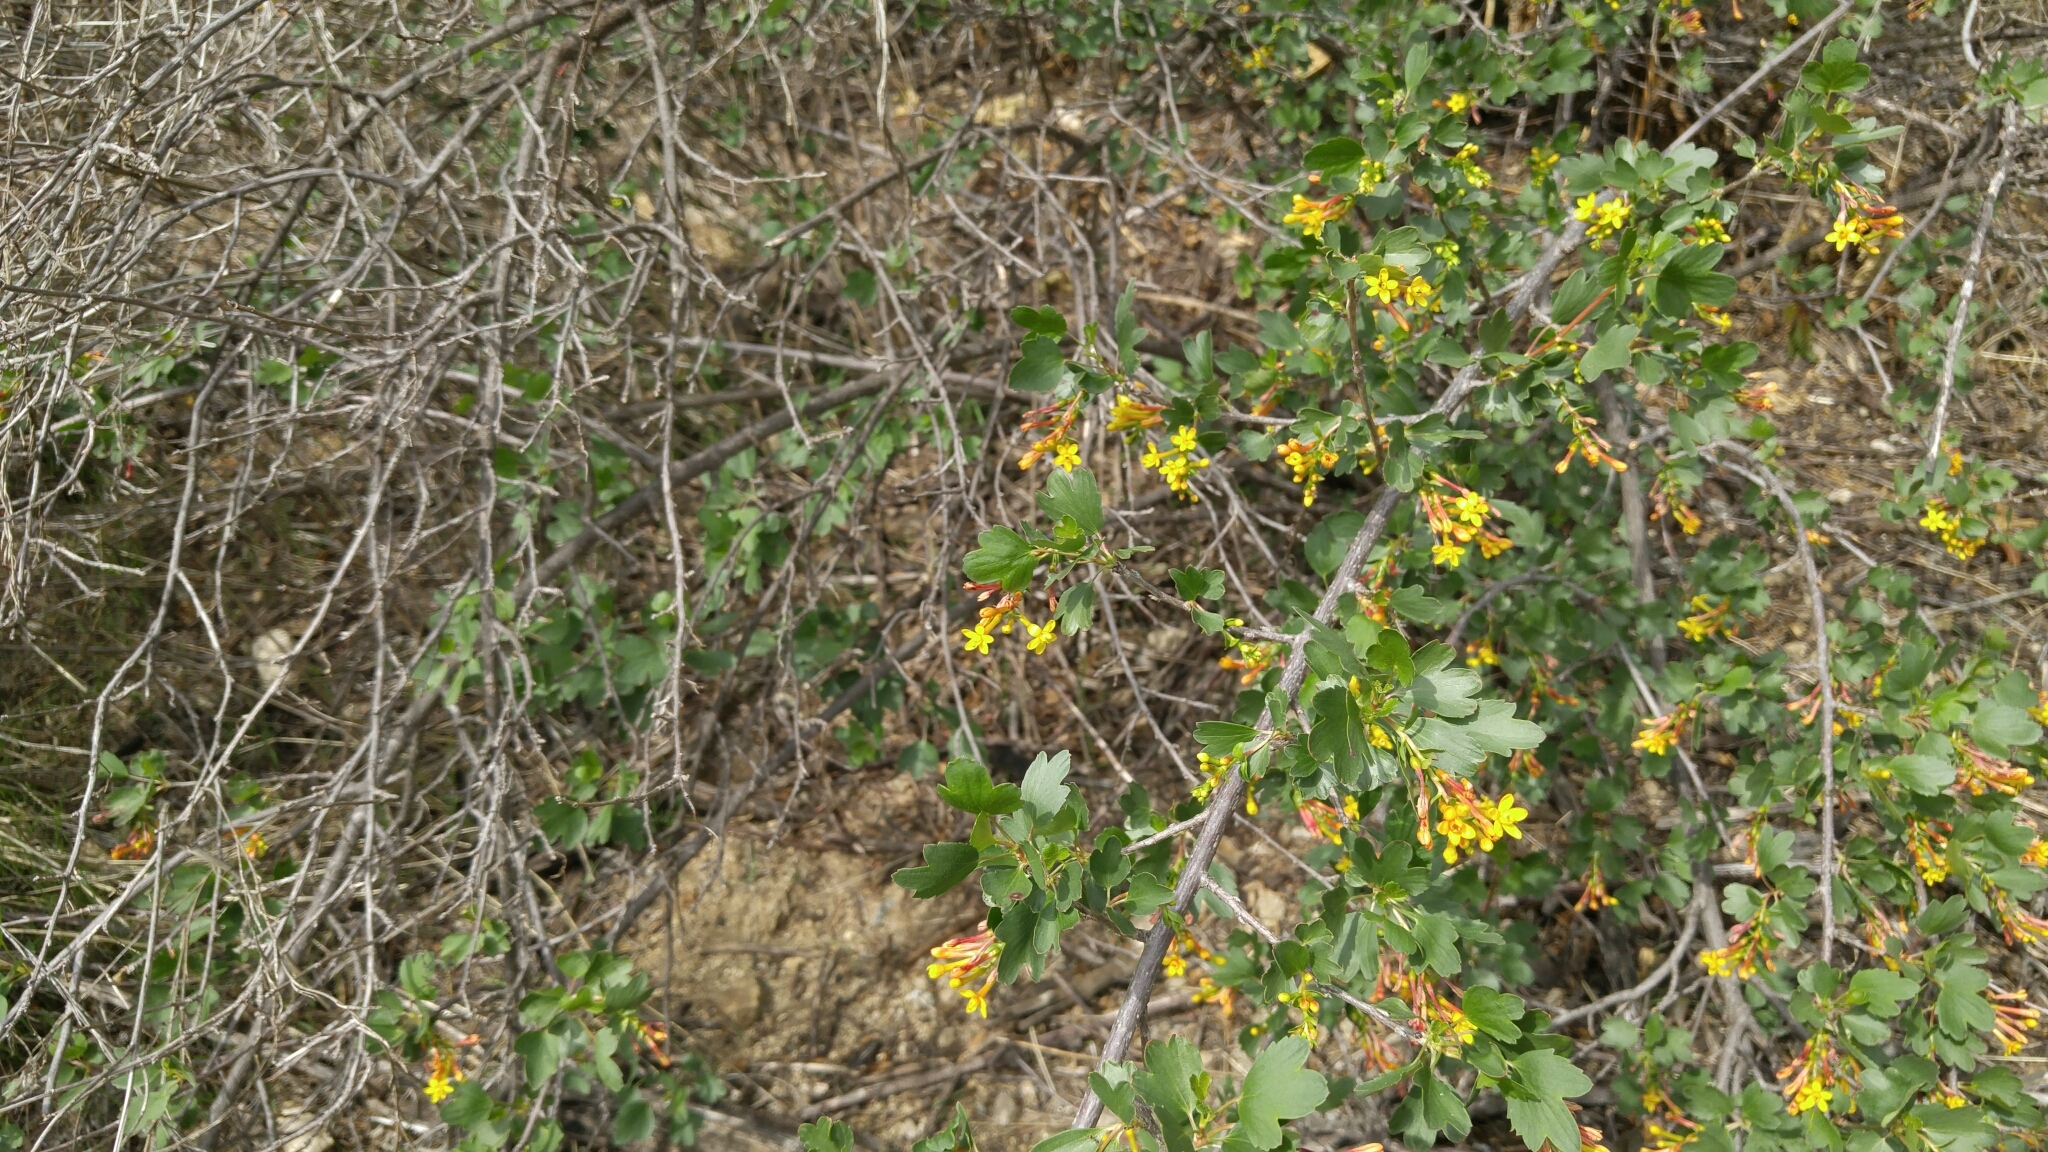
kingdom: Plantae
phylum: Tracheophyta
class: Magnoliopsida
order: Saxifragales
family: Grossulariaceae
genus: Ribes
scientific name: Ribes aureum
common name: Golden currant
